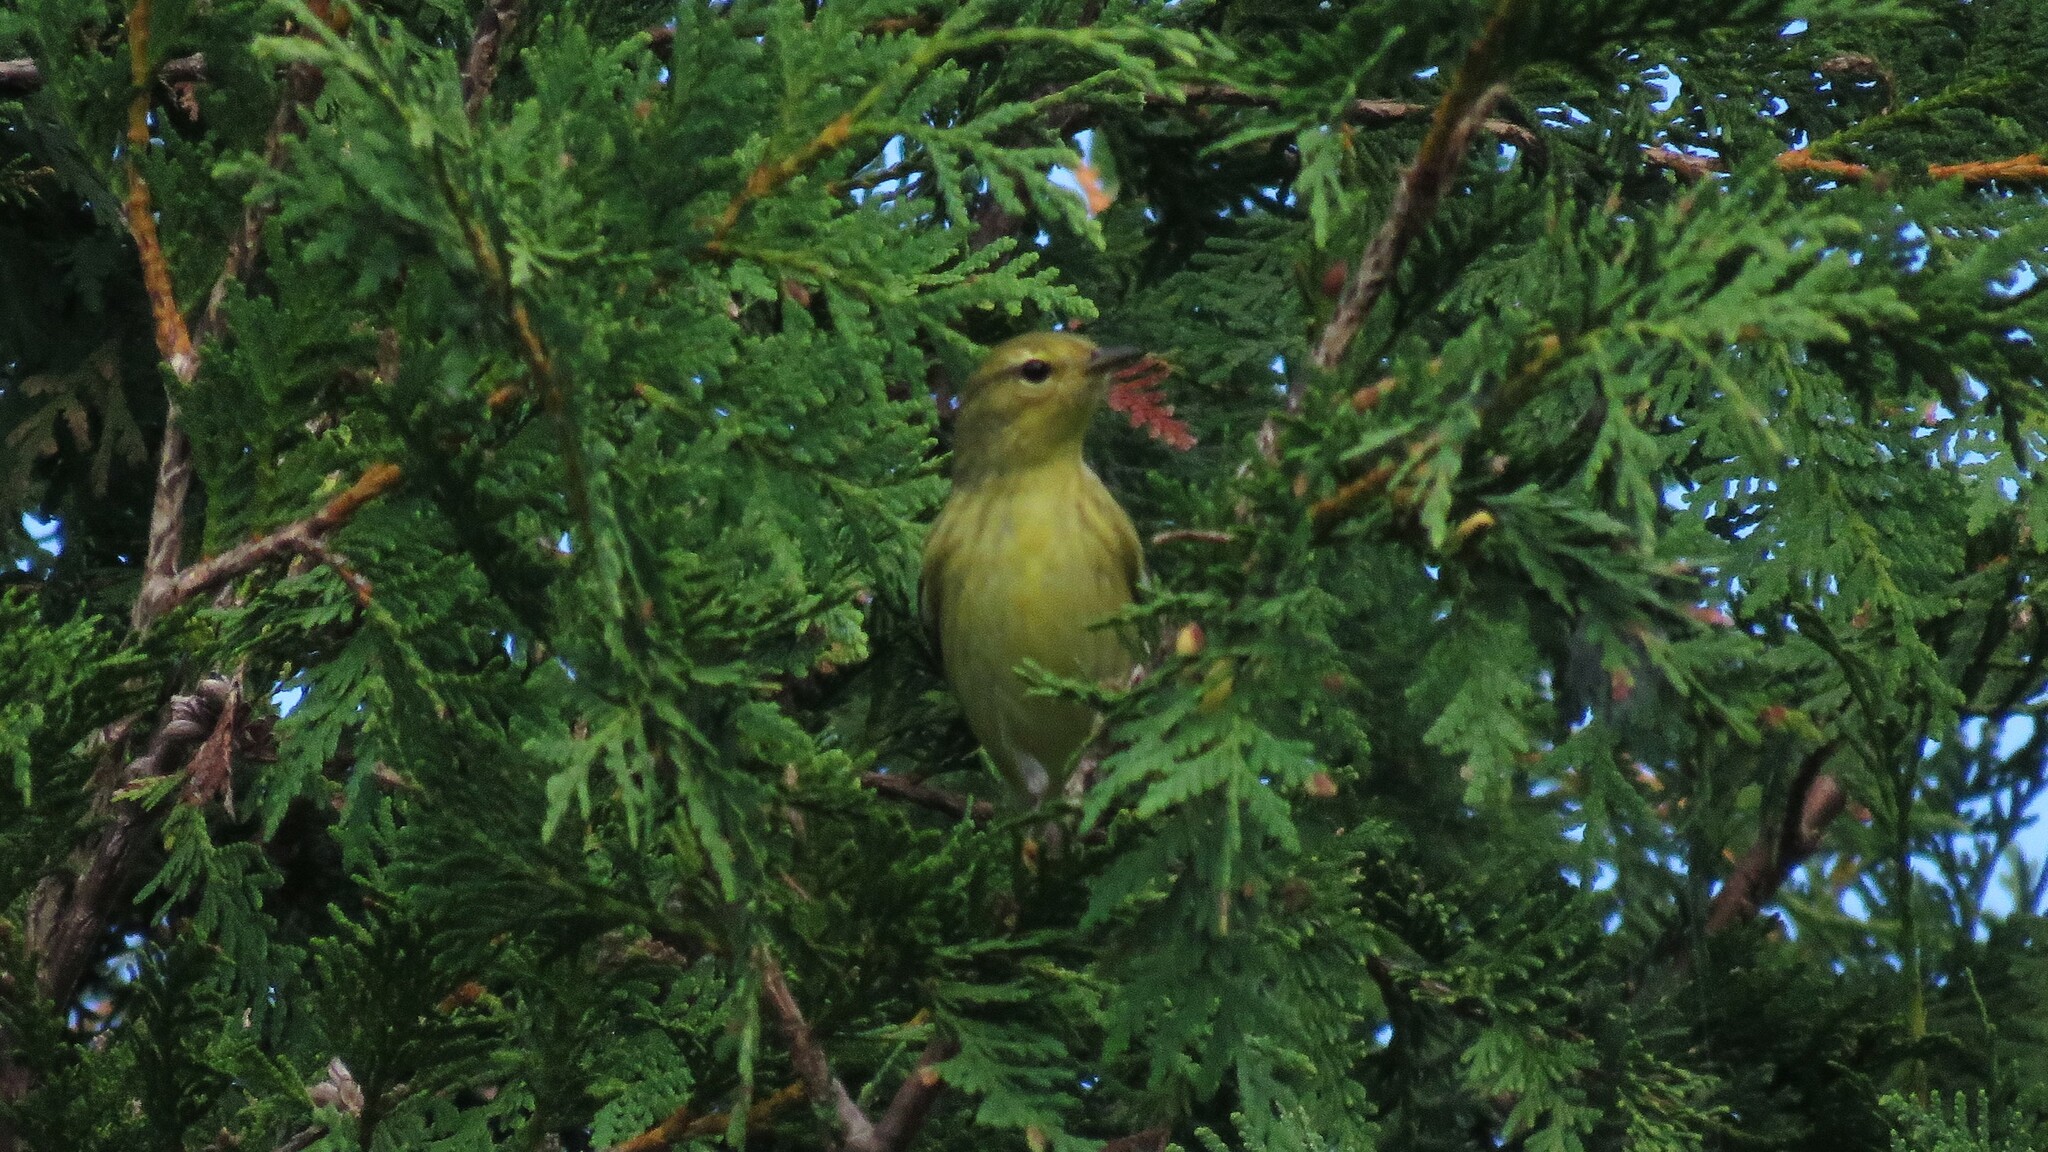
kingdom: Animalia
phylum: Chordata
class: Aves
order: Passeriformes
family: Parulidae
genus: Setophaga
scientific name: Setophaga striata
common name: Blackpoll warbler
